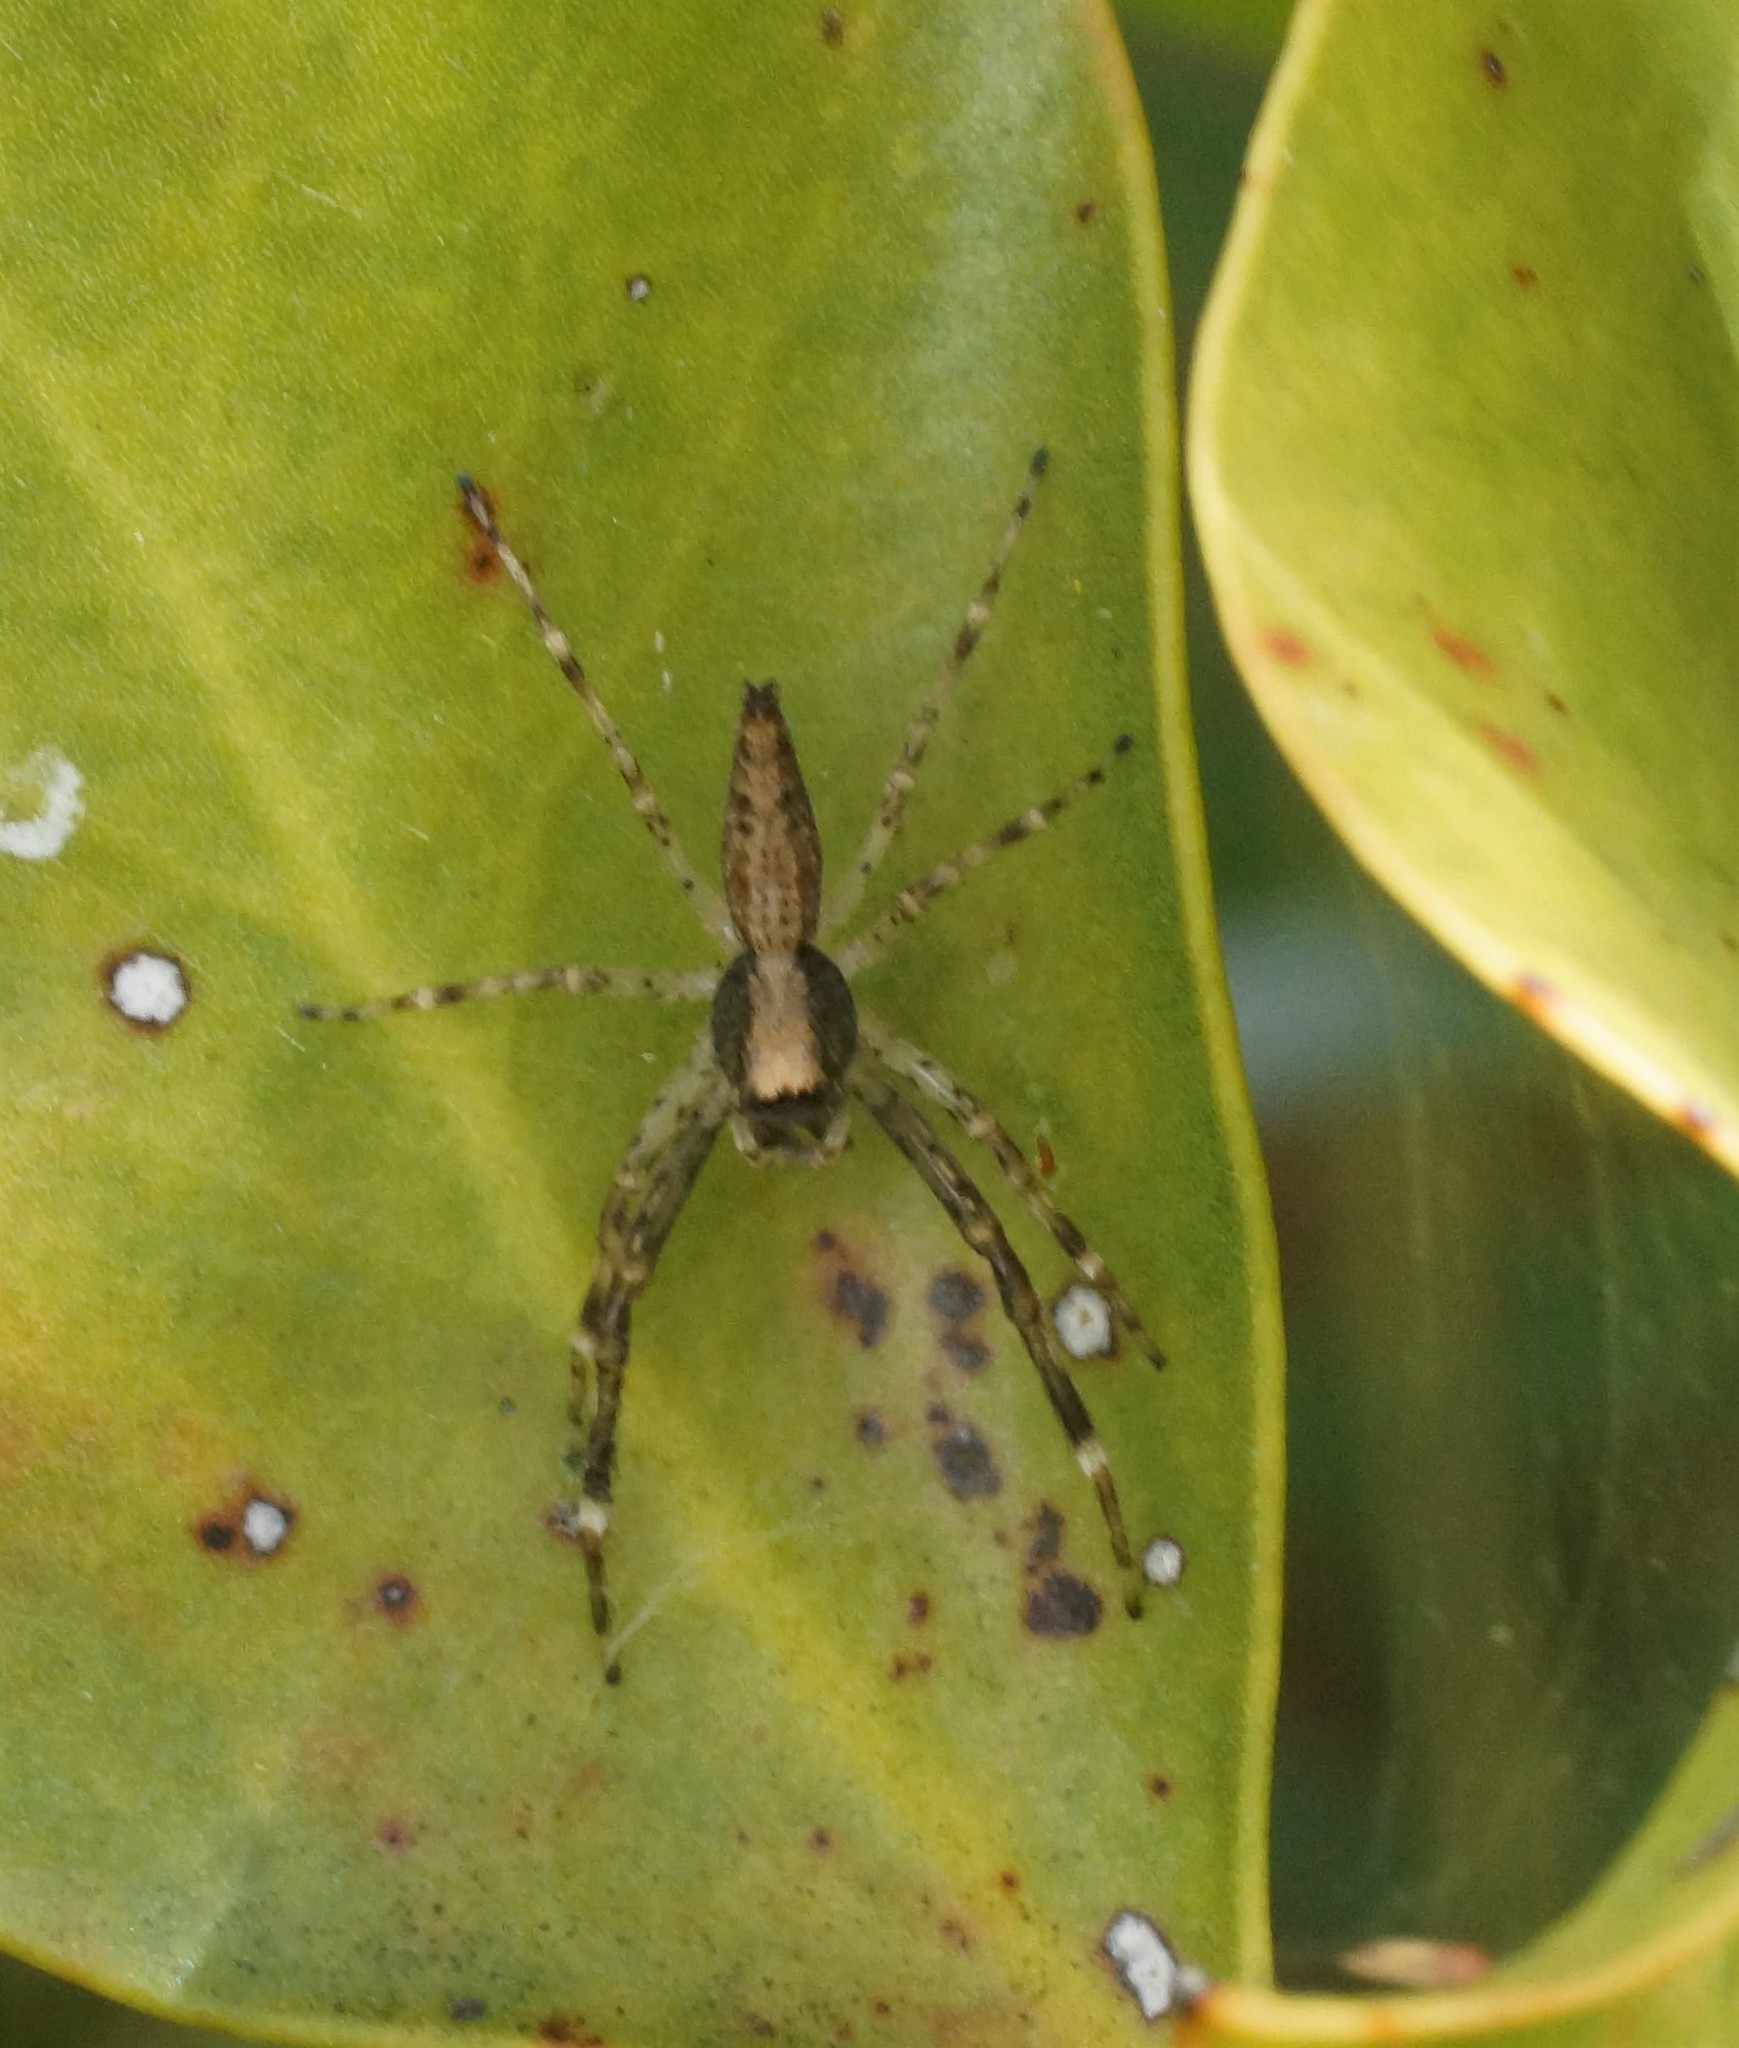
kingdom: Animalia
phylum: Arthropoda
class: Arachnida
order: Araneae
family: Salticidae
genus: Helpis
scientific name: Helpis minitabunda
